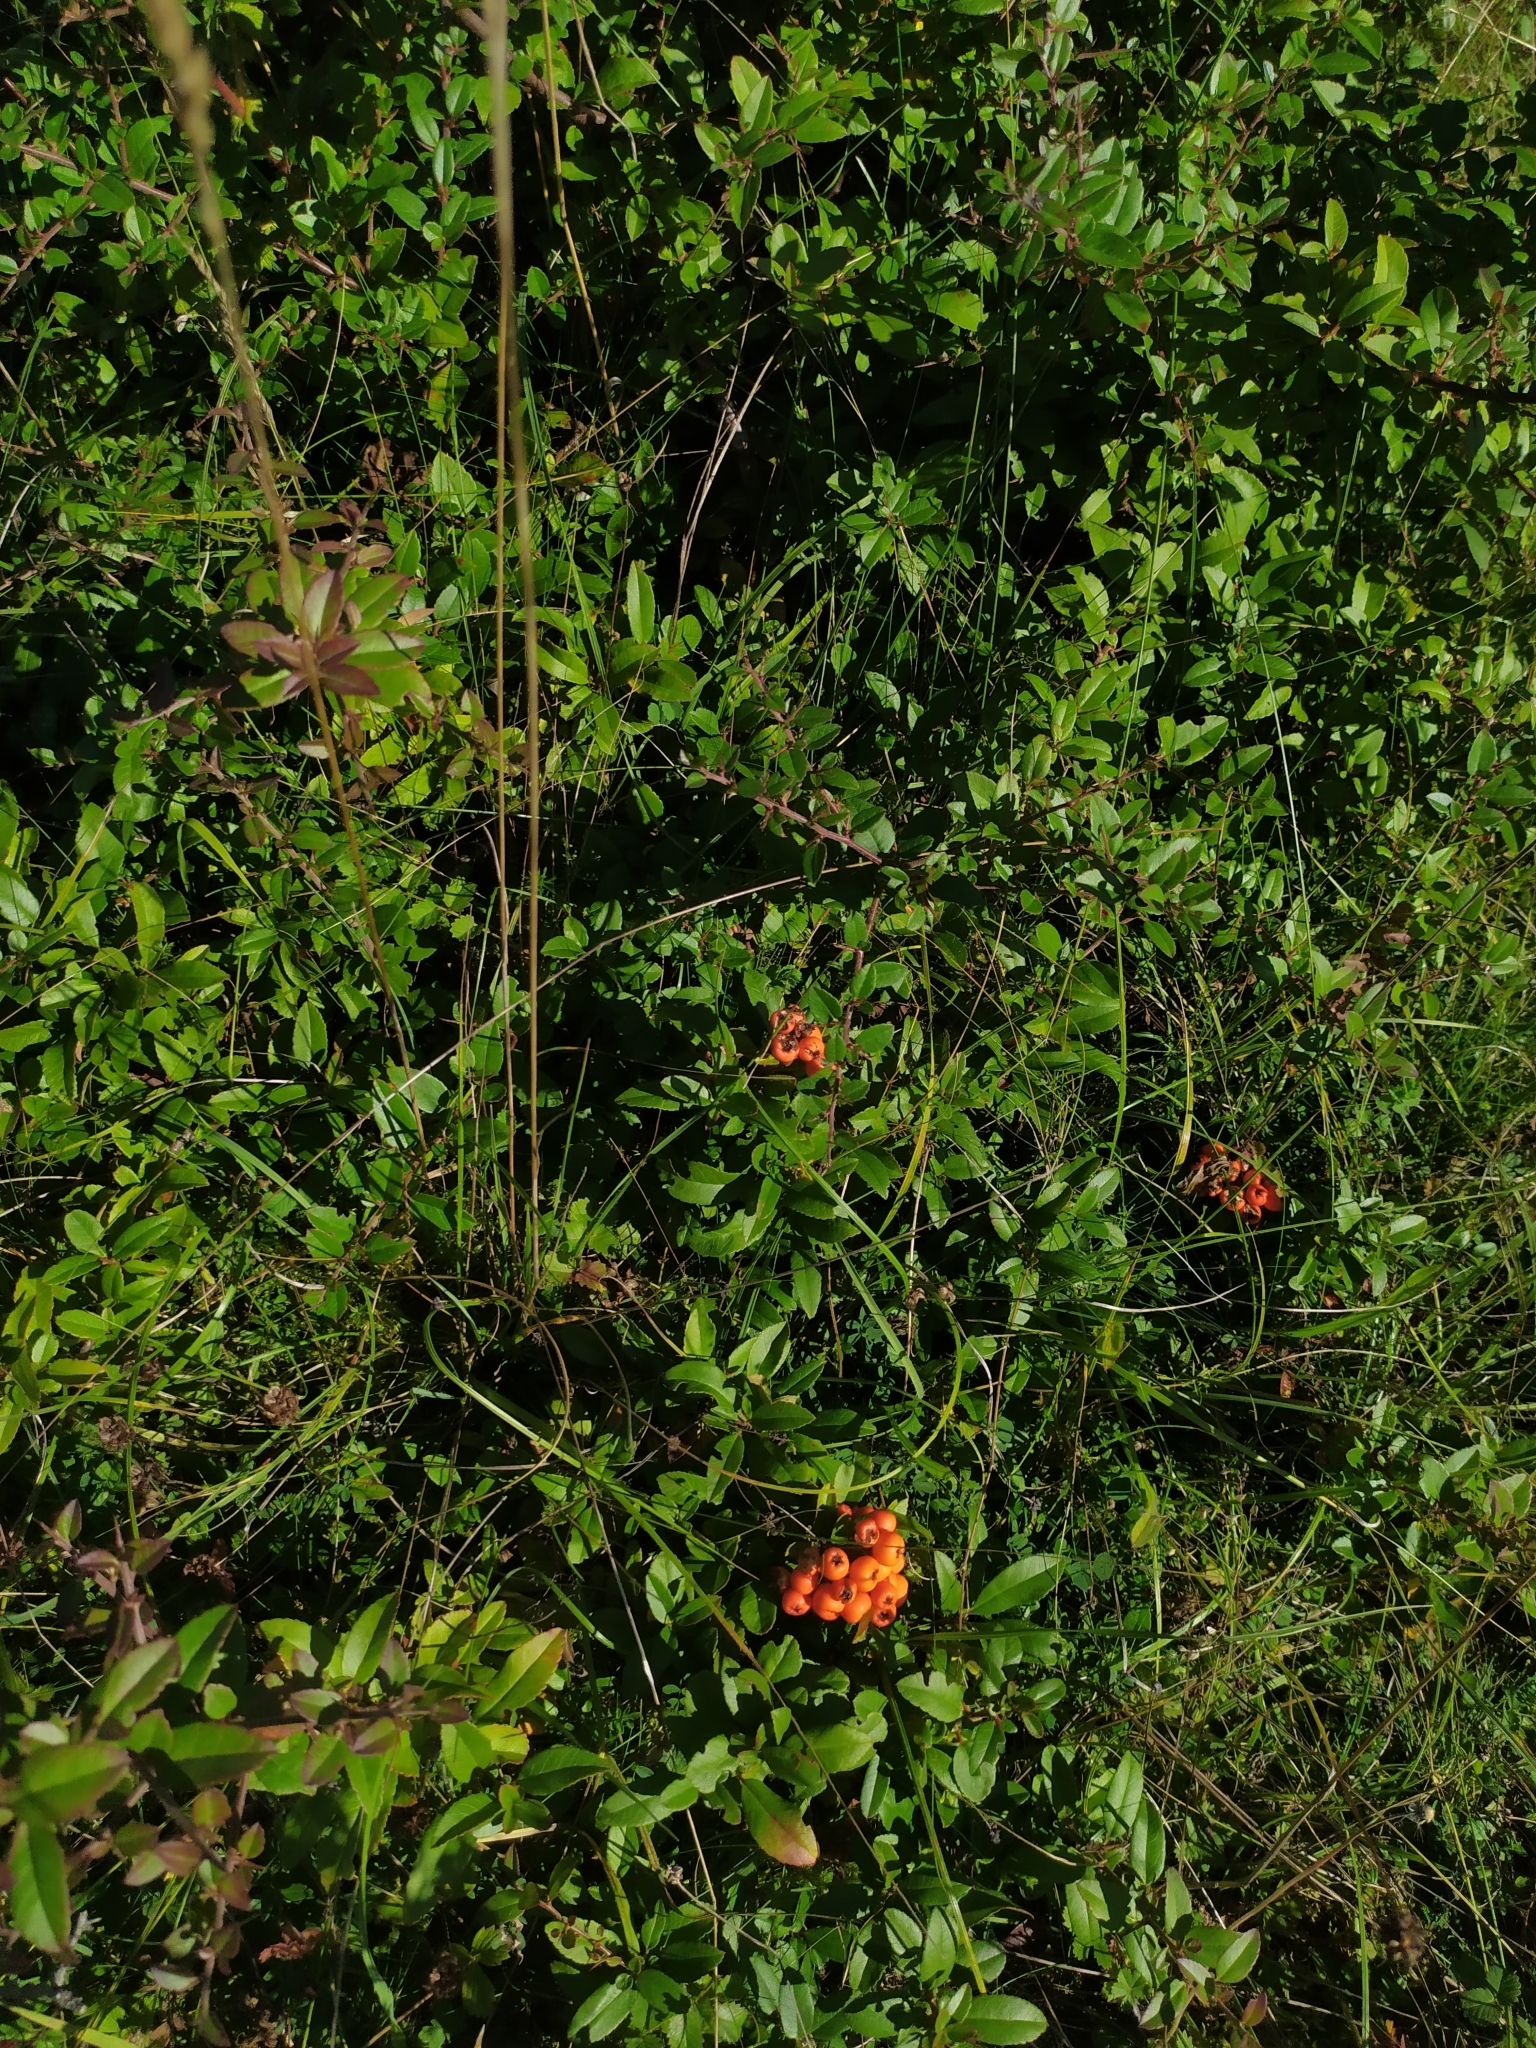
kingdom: Plantae
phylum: Tracheophyta
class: Magnoliopsida
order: Rosales
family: Rosaceae
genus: Pyracantha
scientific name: Pyracantha coccinea
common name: Firethorn
